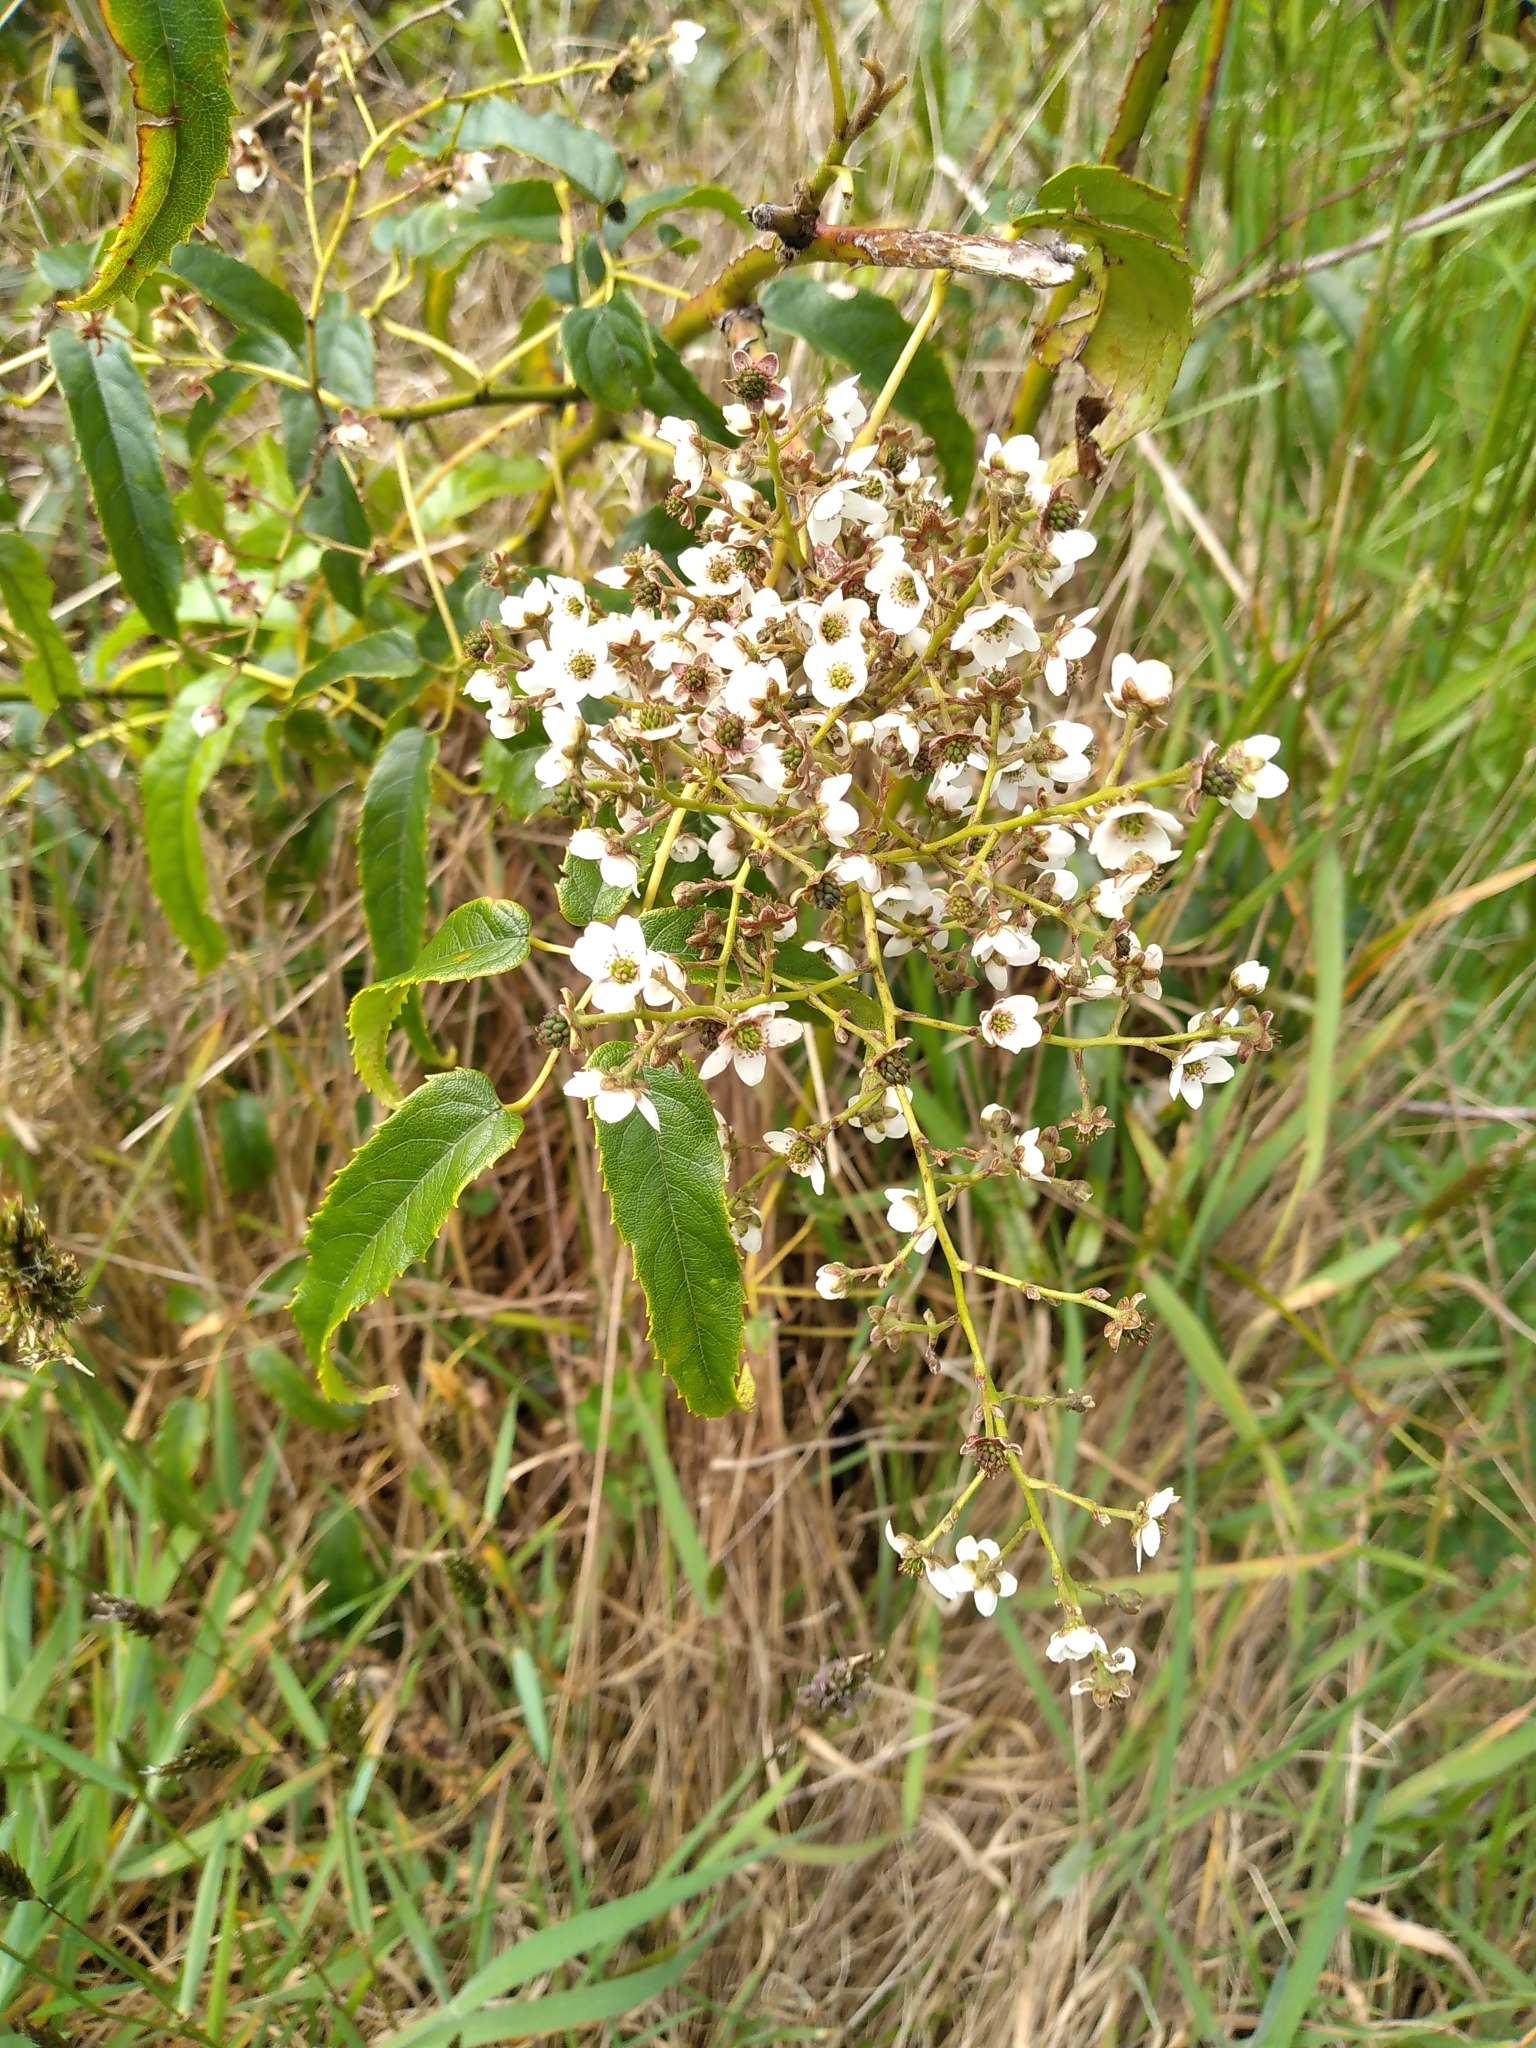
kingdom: Plantae
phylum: Tracheophyta
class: Magnoliopsida
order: Rosales
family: Rosaceae
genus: Rubus
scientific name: Rubus cissoides
